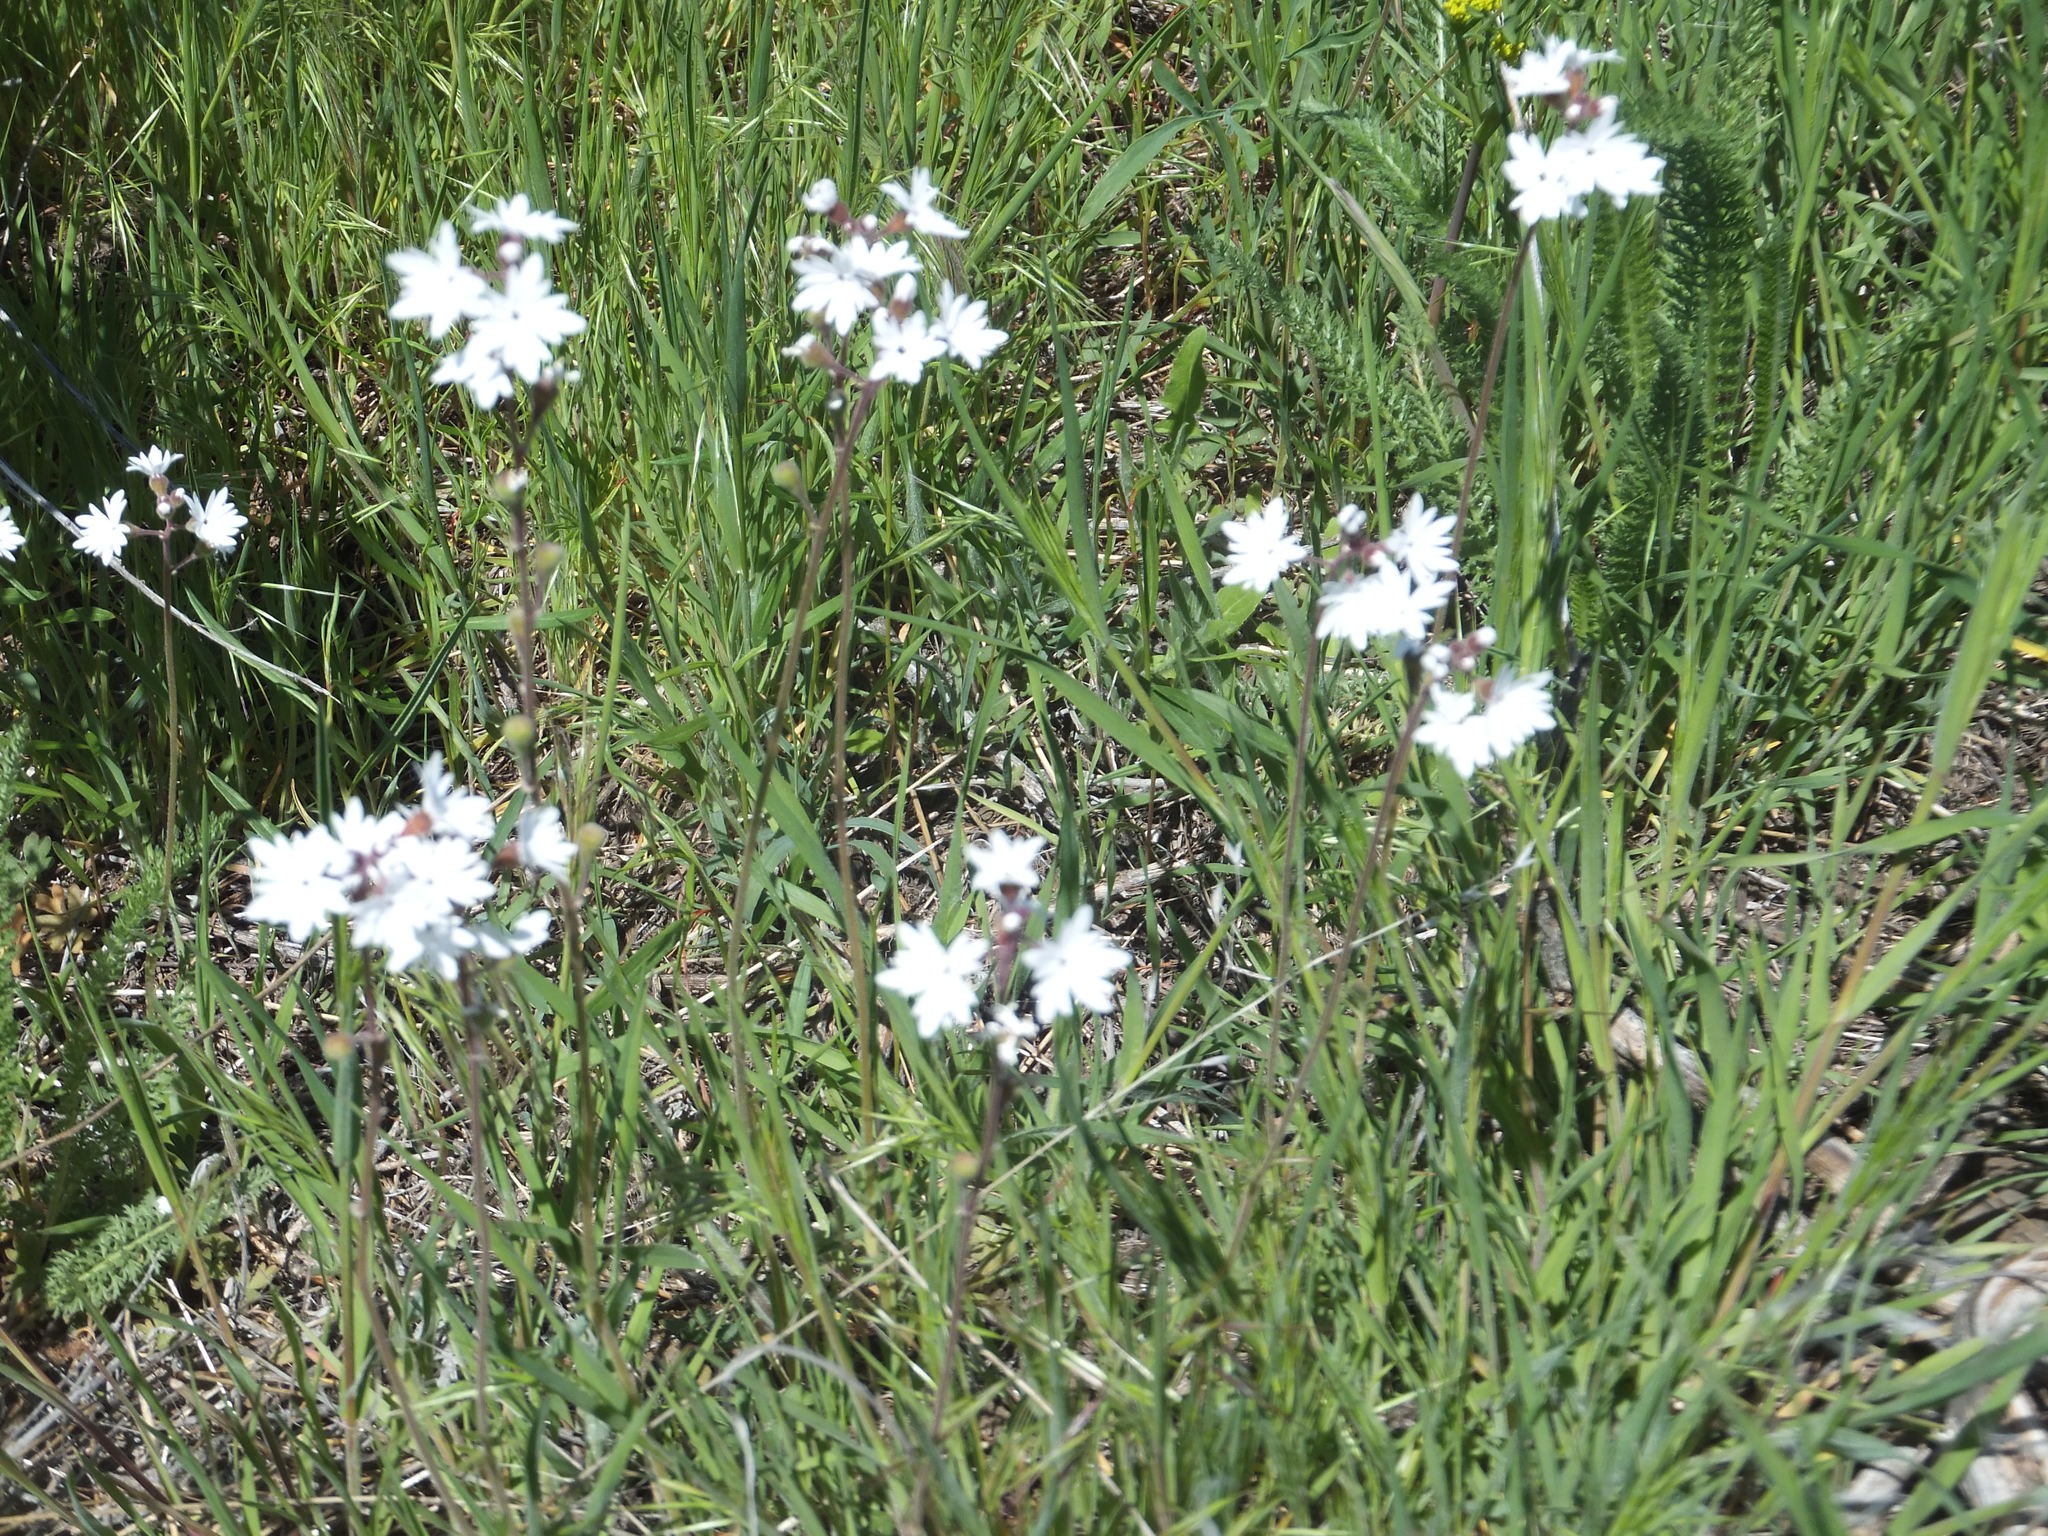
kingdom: Plantae
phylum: Tracheophyta
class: Magnoliopsida
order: Saxifragales
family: Saxifragaceae
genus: Lithophragma
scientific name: Lithophragma parviflorum
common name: Small-flowered fringe-cup
